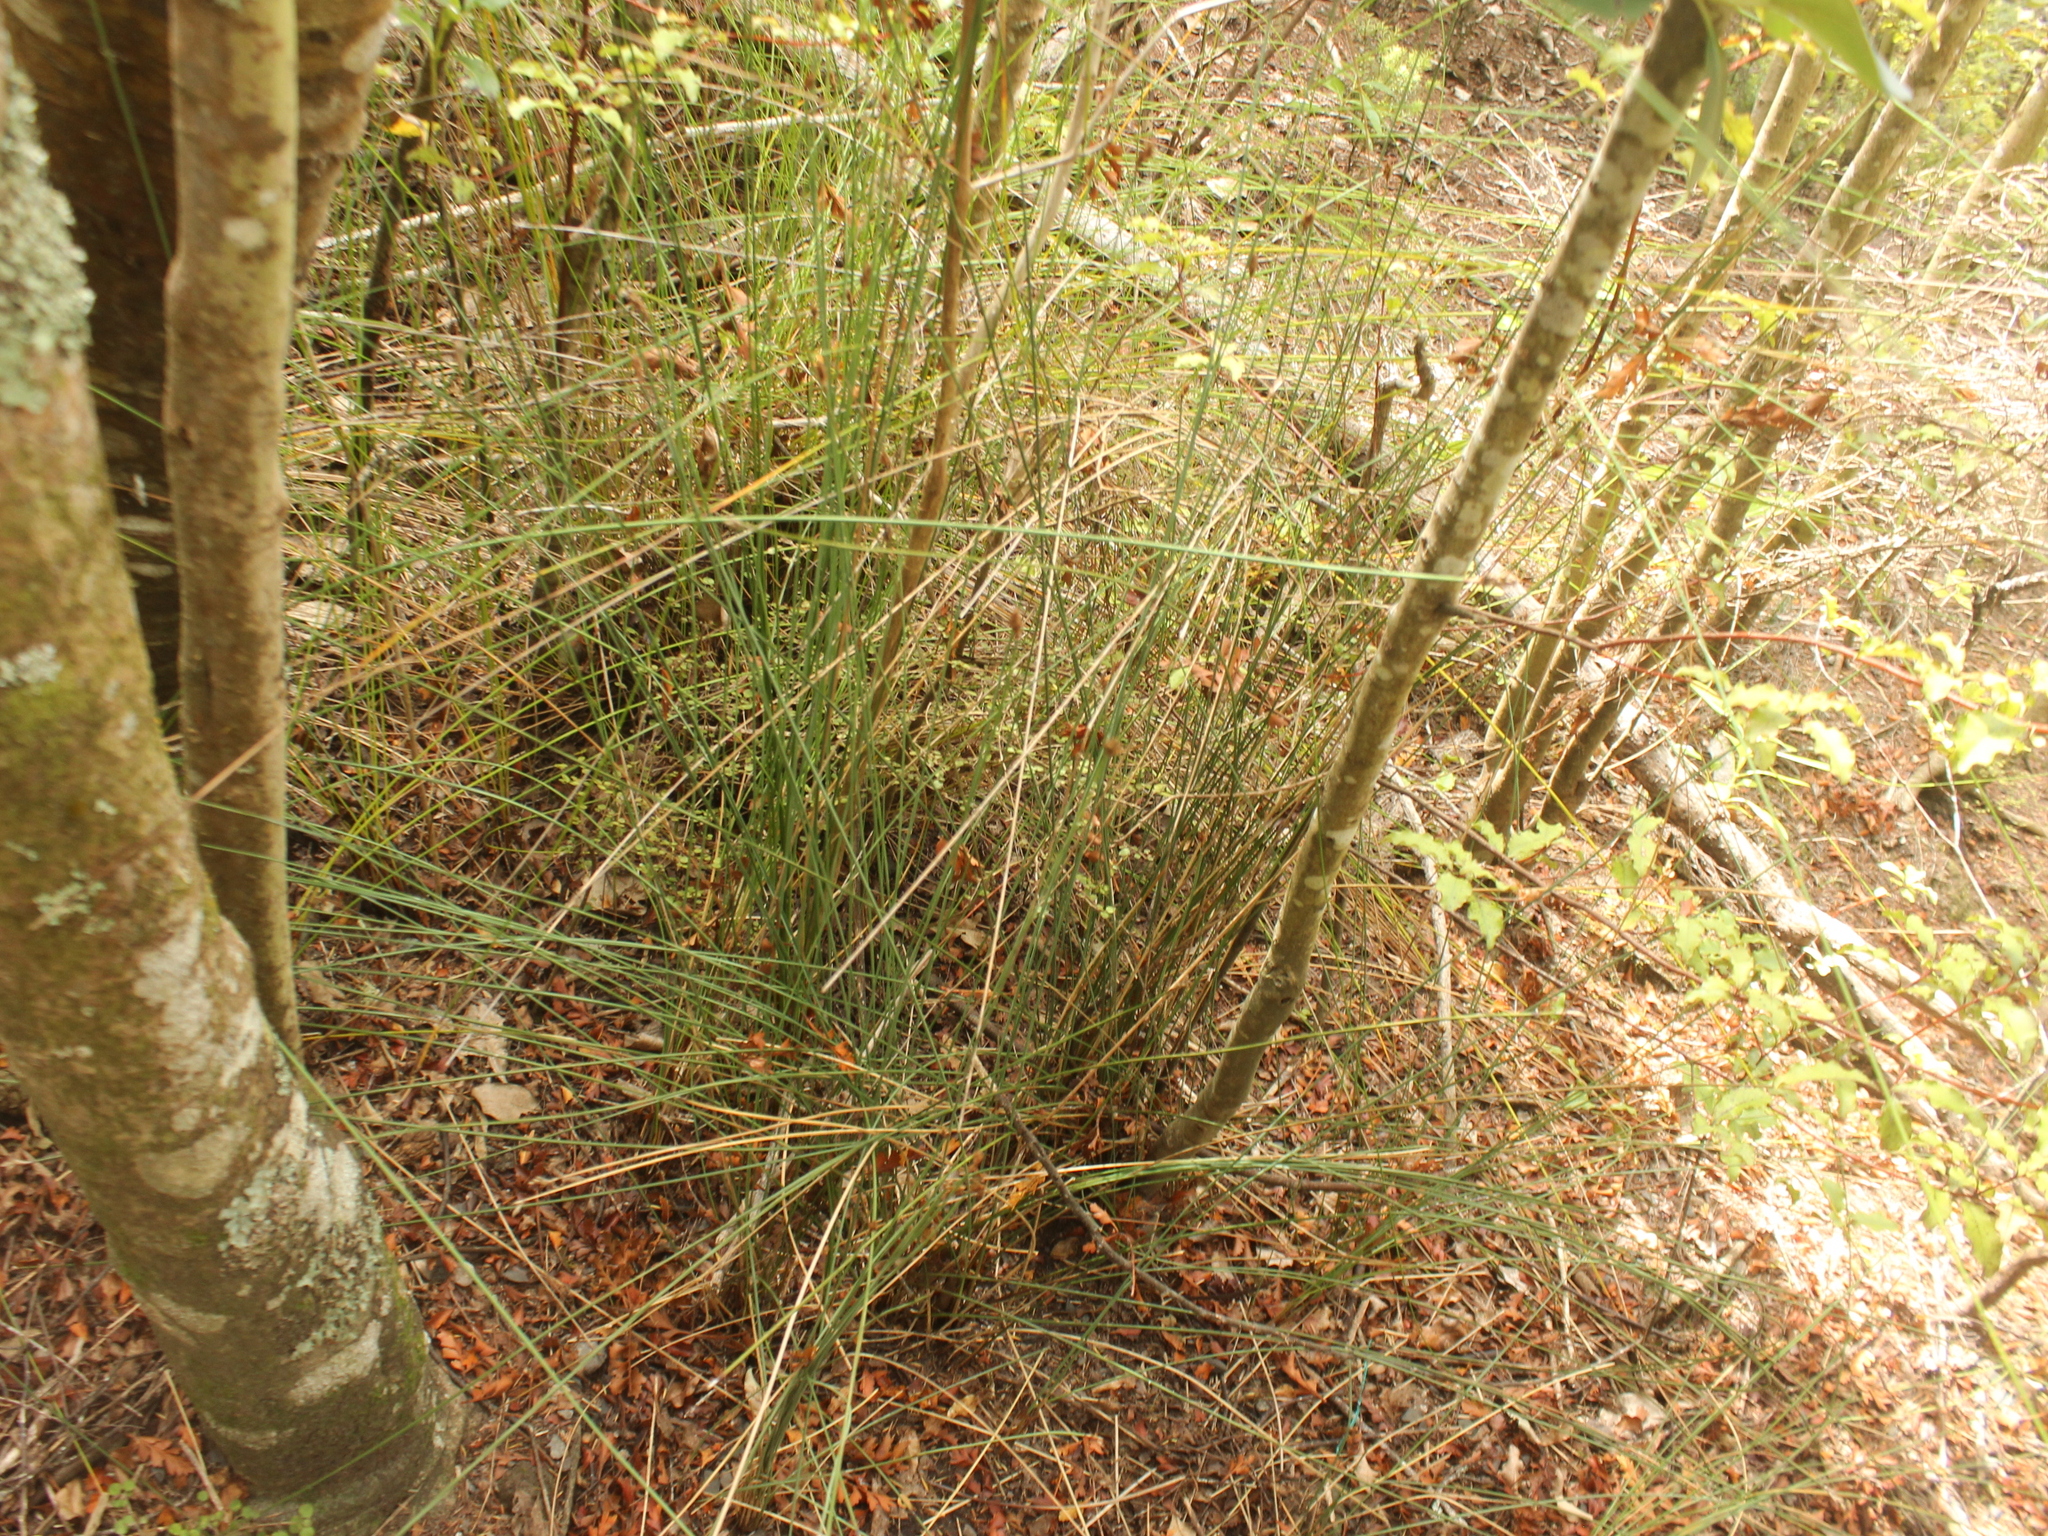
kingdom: Plantae
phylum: Tracheophyta
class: Liliopsida
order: Poales
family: Cyperaceae
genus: Schoenus
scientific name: Schoenus tendo
